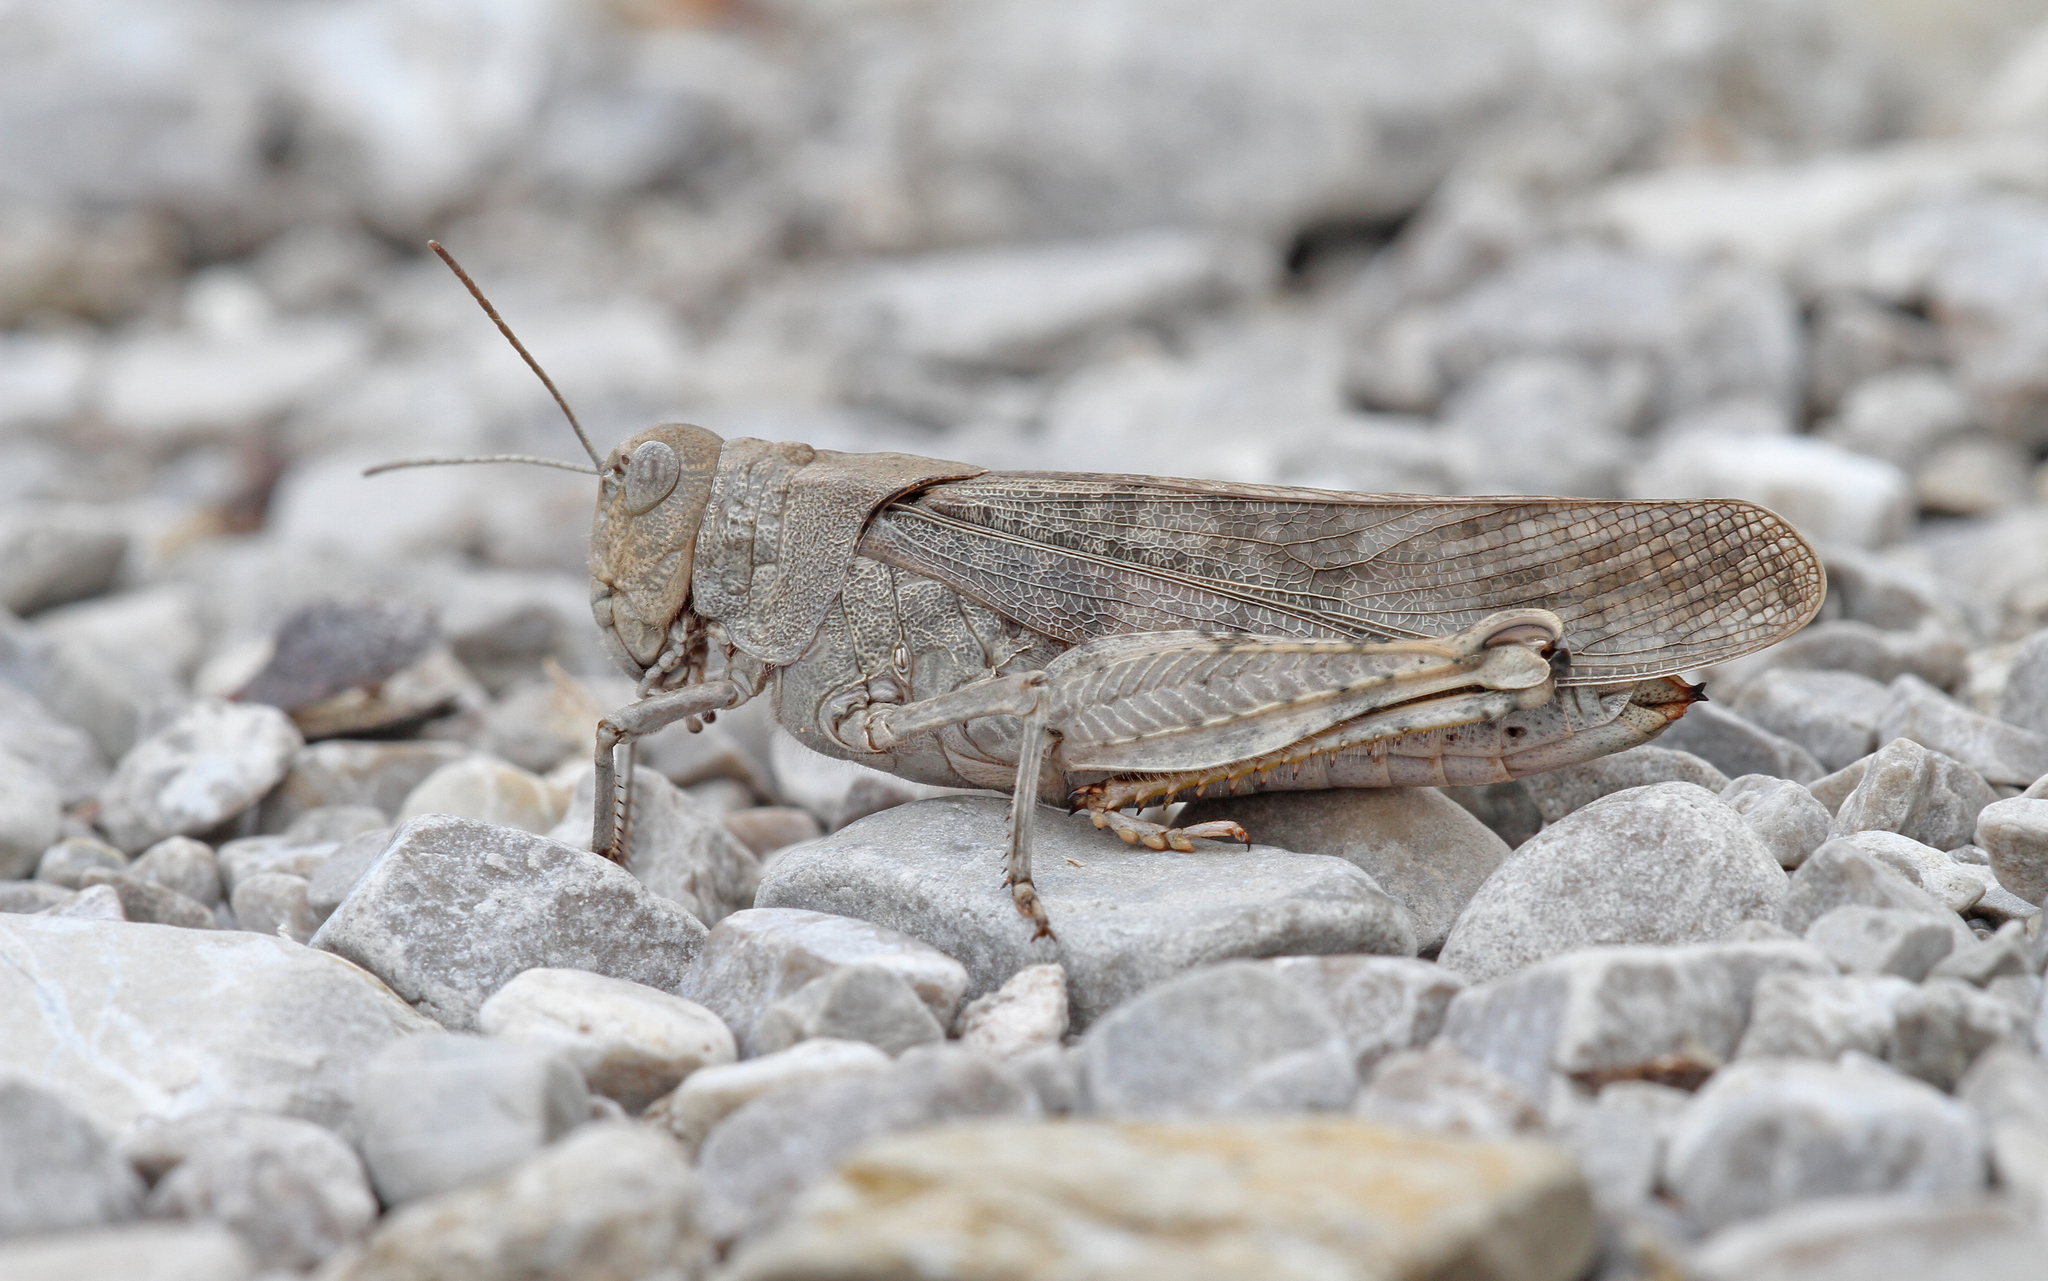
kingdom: Animalia
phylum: Arthropoda
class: Insecta
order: Orthoptera
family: Acrididae
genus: Bryodemella
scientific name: Bryodemella tuberculata
